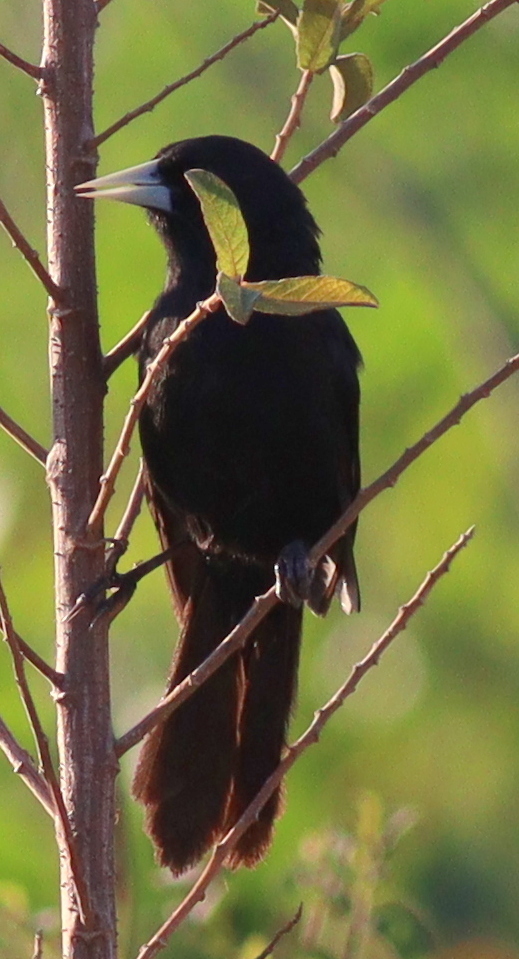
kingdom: Animalia
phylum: Chordata
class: Aves
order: Passeriformes
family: Icteridae
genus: Cacicus
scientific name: Cacicus solitarius
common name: Solitary cacique
